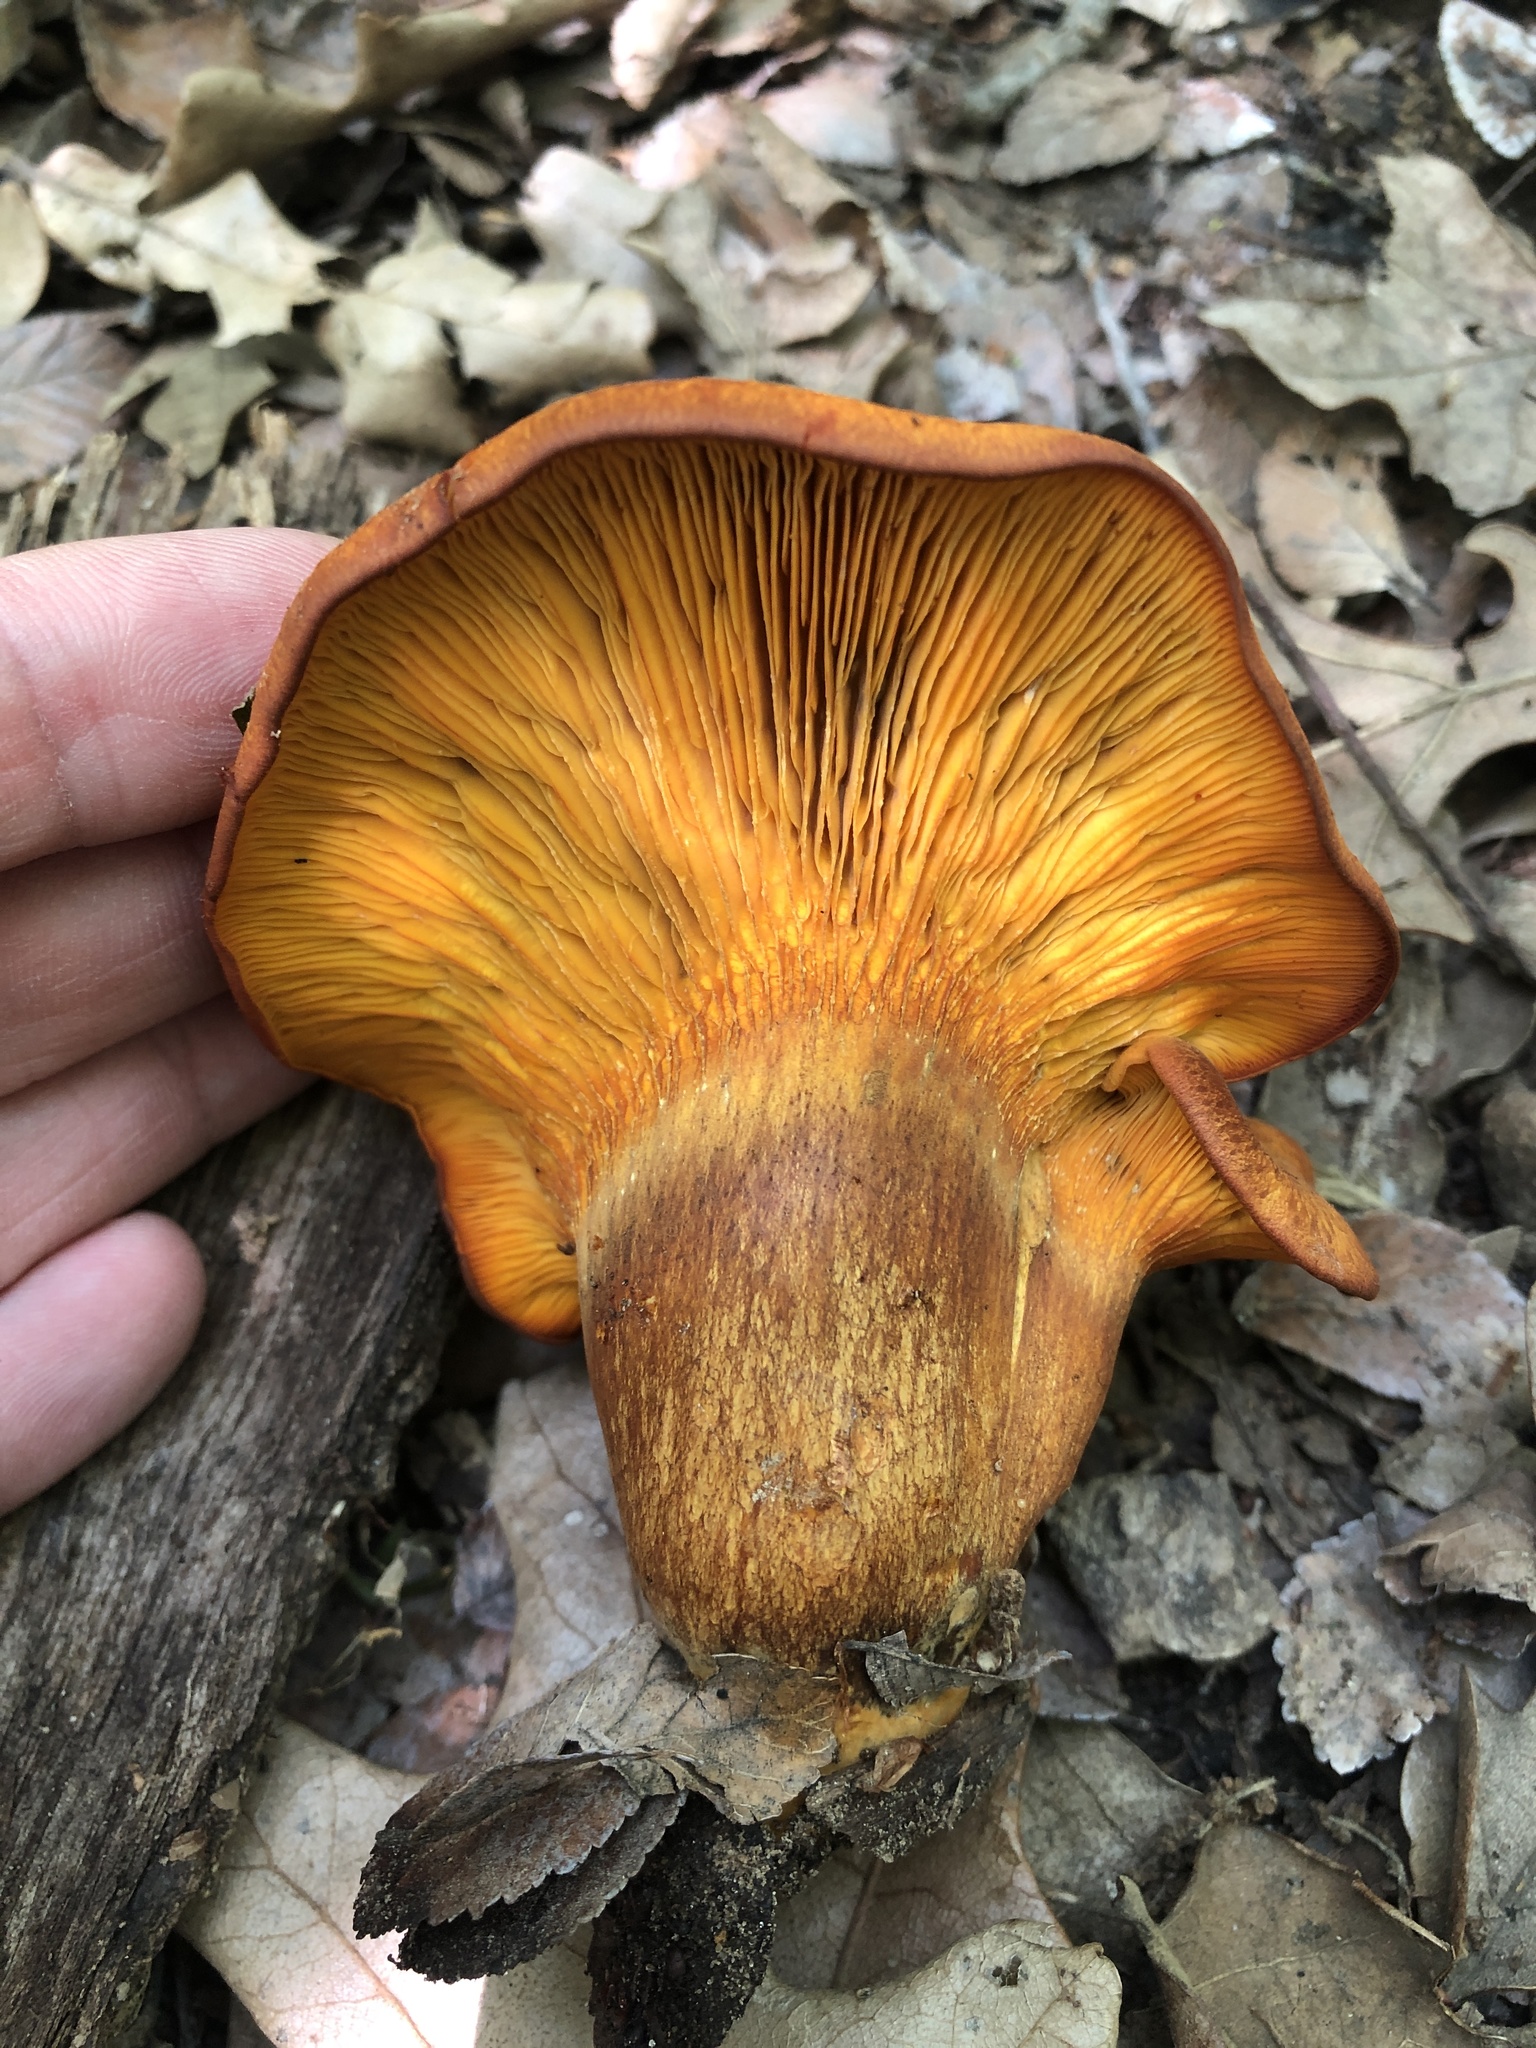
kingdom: Fungi
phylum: Basidiomycota
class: Agaricomycetes
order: Agaricales
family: Omphalotaceae
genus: Omphalotus
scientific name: Omphalotus subilludens
